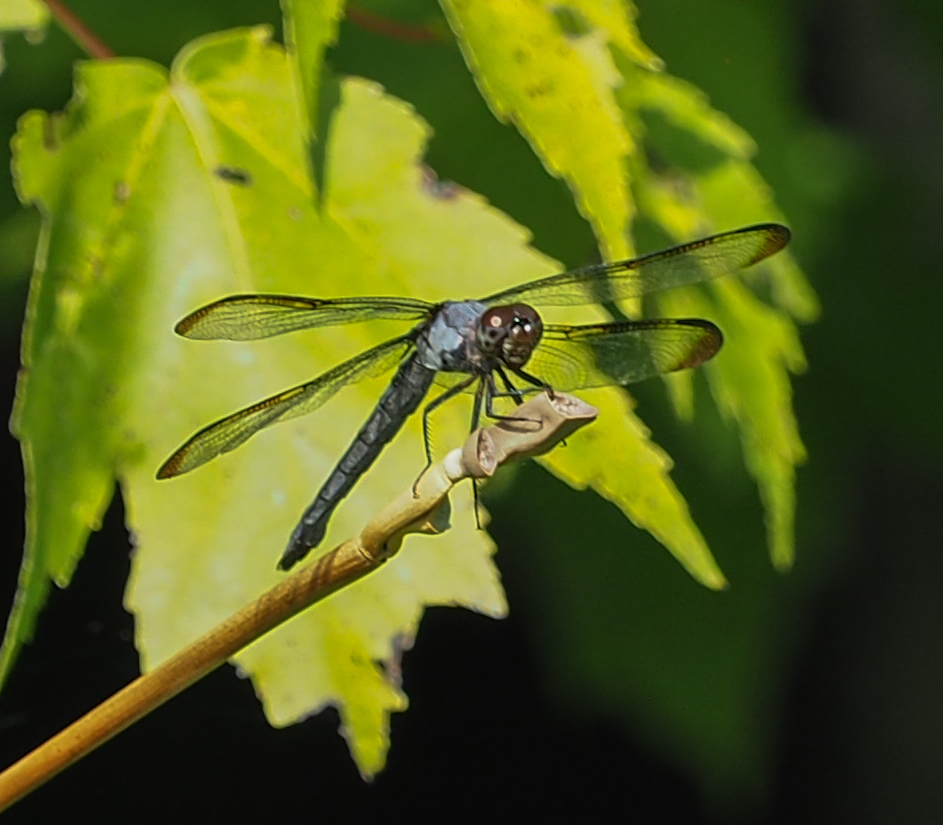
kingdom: Animalia
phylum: Arthropoda
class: Insecta
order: Odonata
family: Libellulidae
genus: Libellula
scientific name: Libellula incesta
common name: Slaty skimmer
